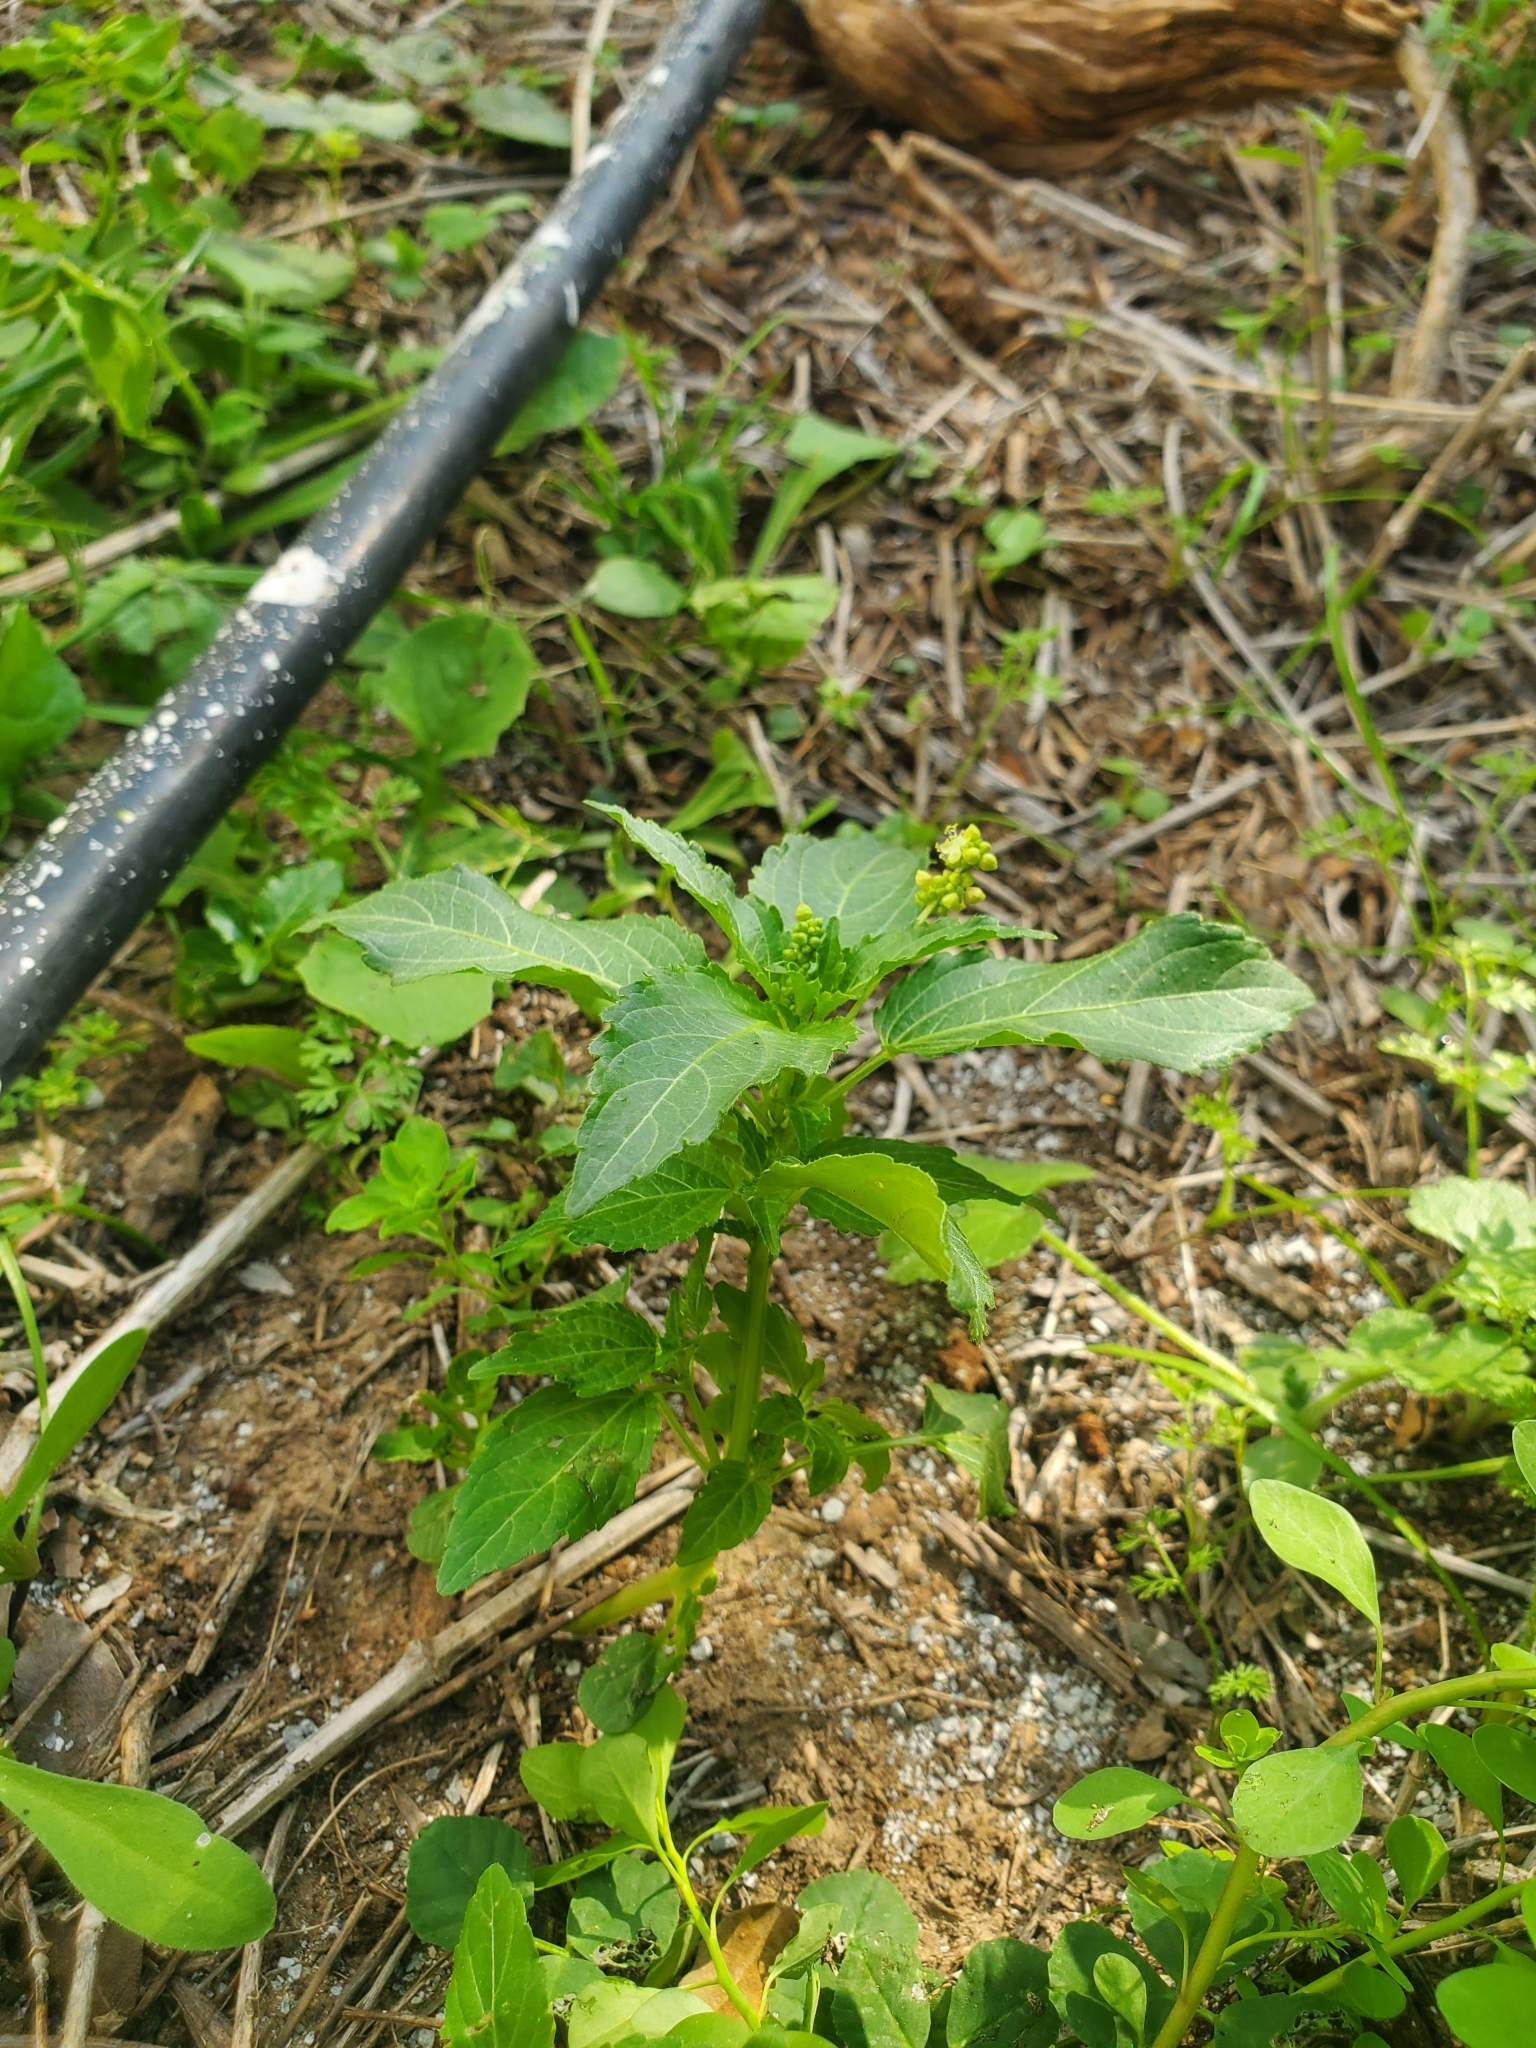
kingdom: Plantae
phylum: Tracheophyta
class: Magnoliopsida
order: Malpighiales
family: Euphorbiaceae
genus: Mercurialis
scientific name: Mercurialis annua
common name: Annual mercury
